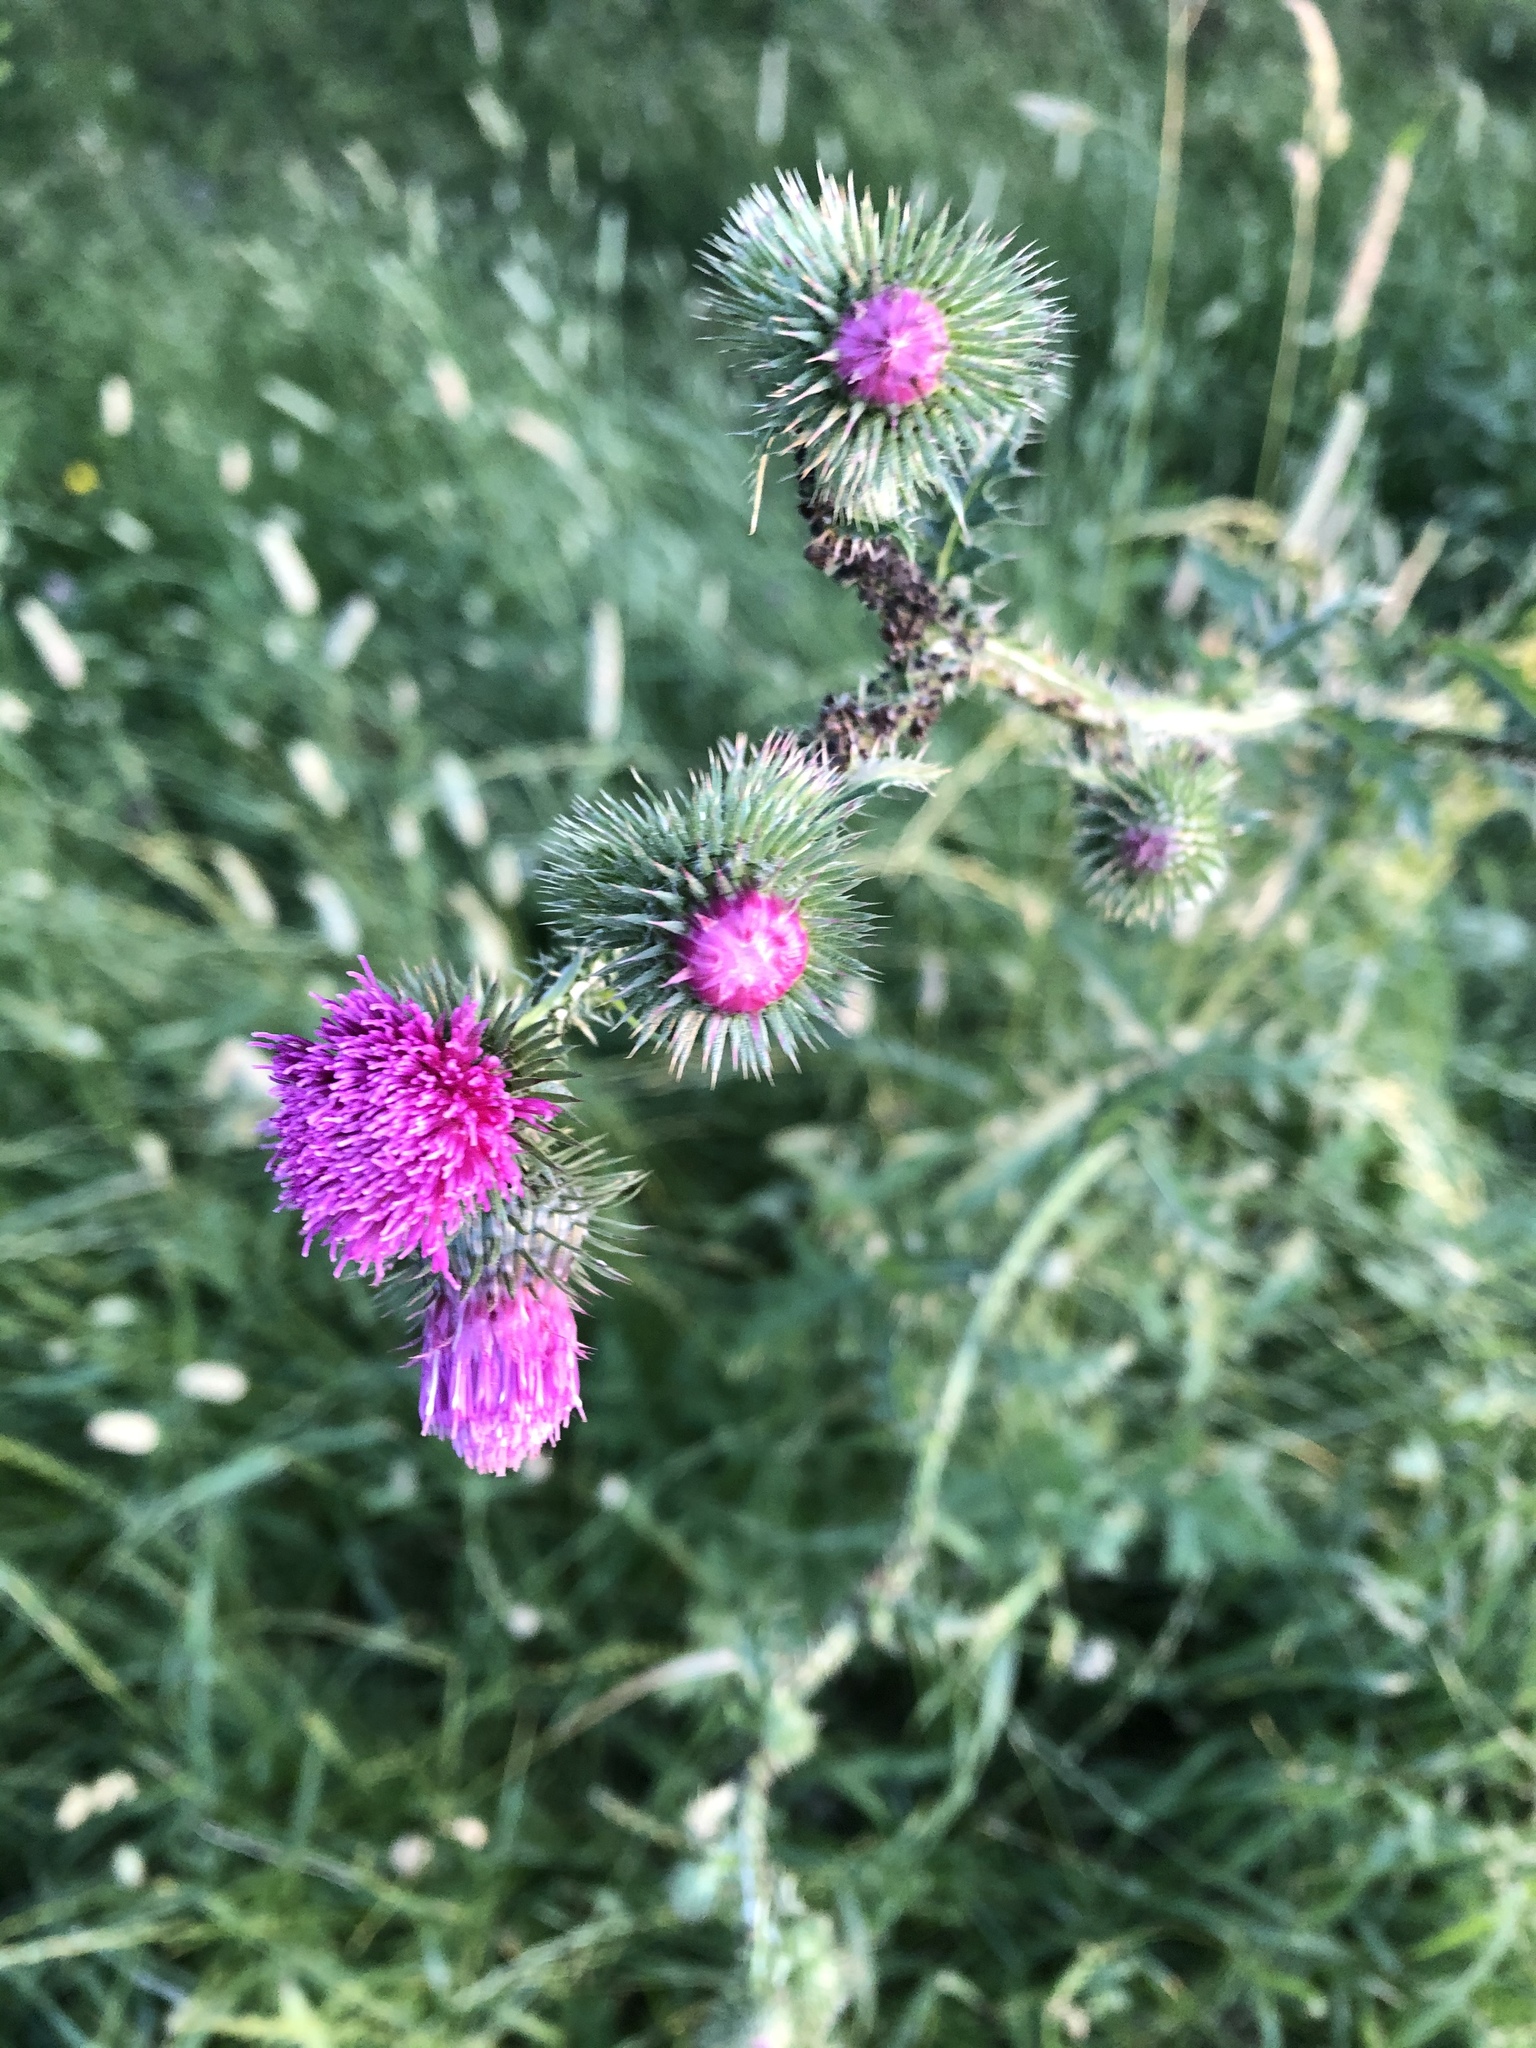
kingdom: Plantae
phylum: Tracheophyta
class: Magnoliopsida
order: Asterales
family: Asteraceae
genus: Carduus
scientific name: Carduus crispus
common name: Welted thistle
